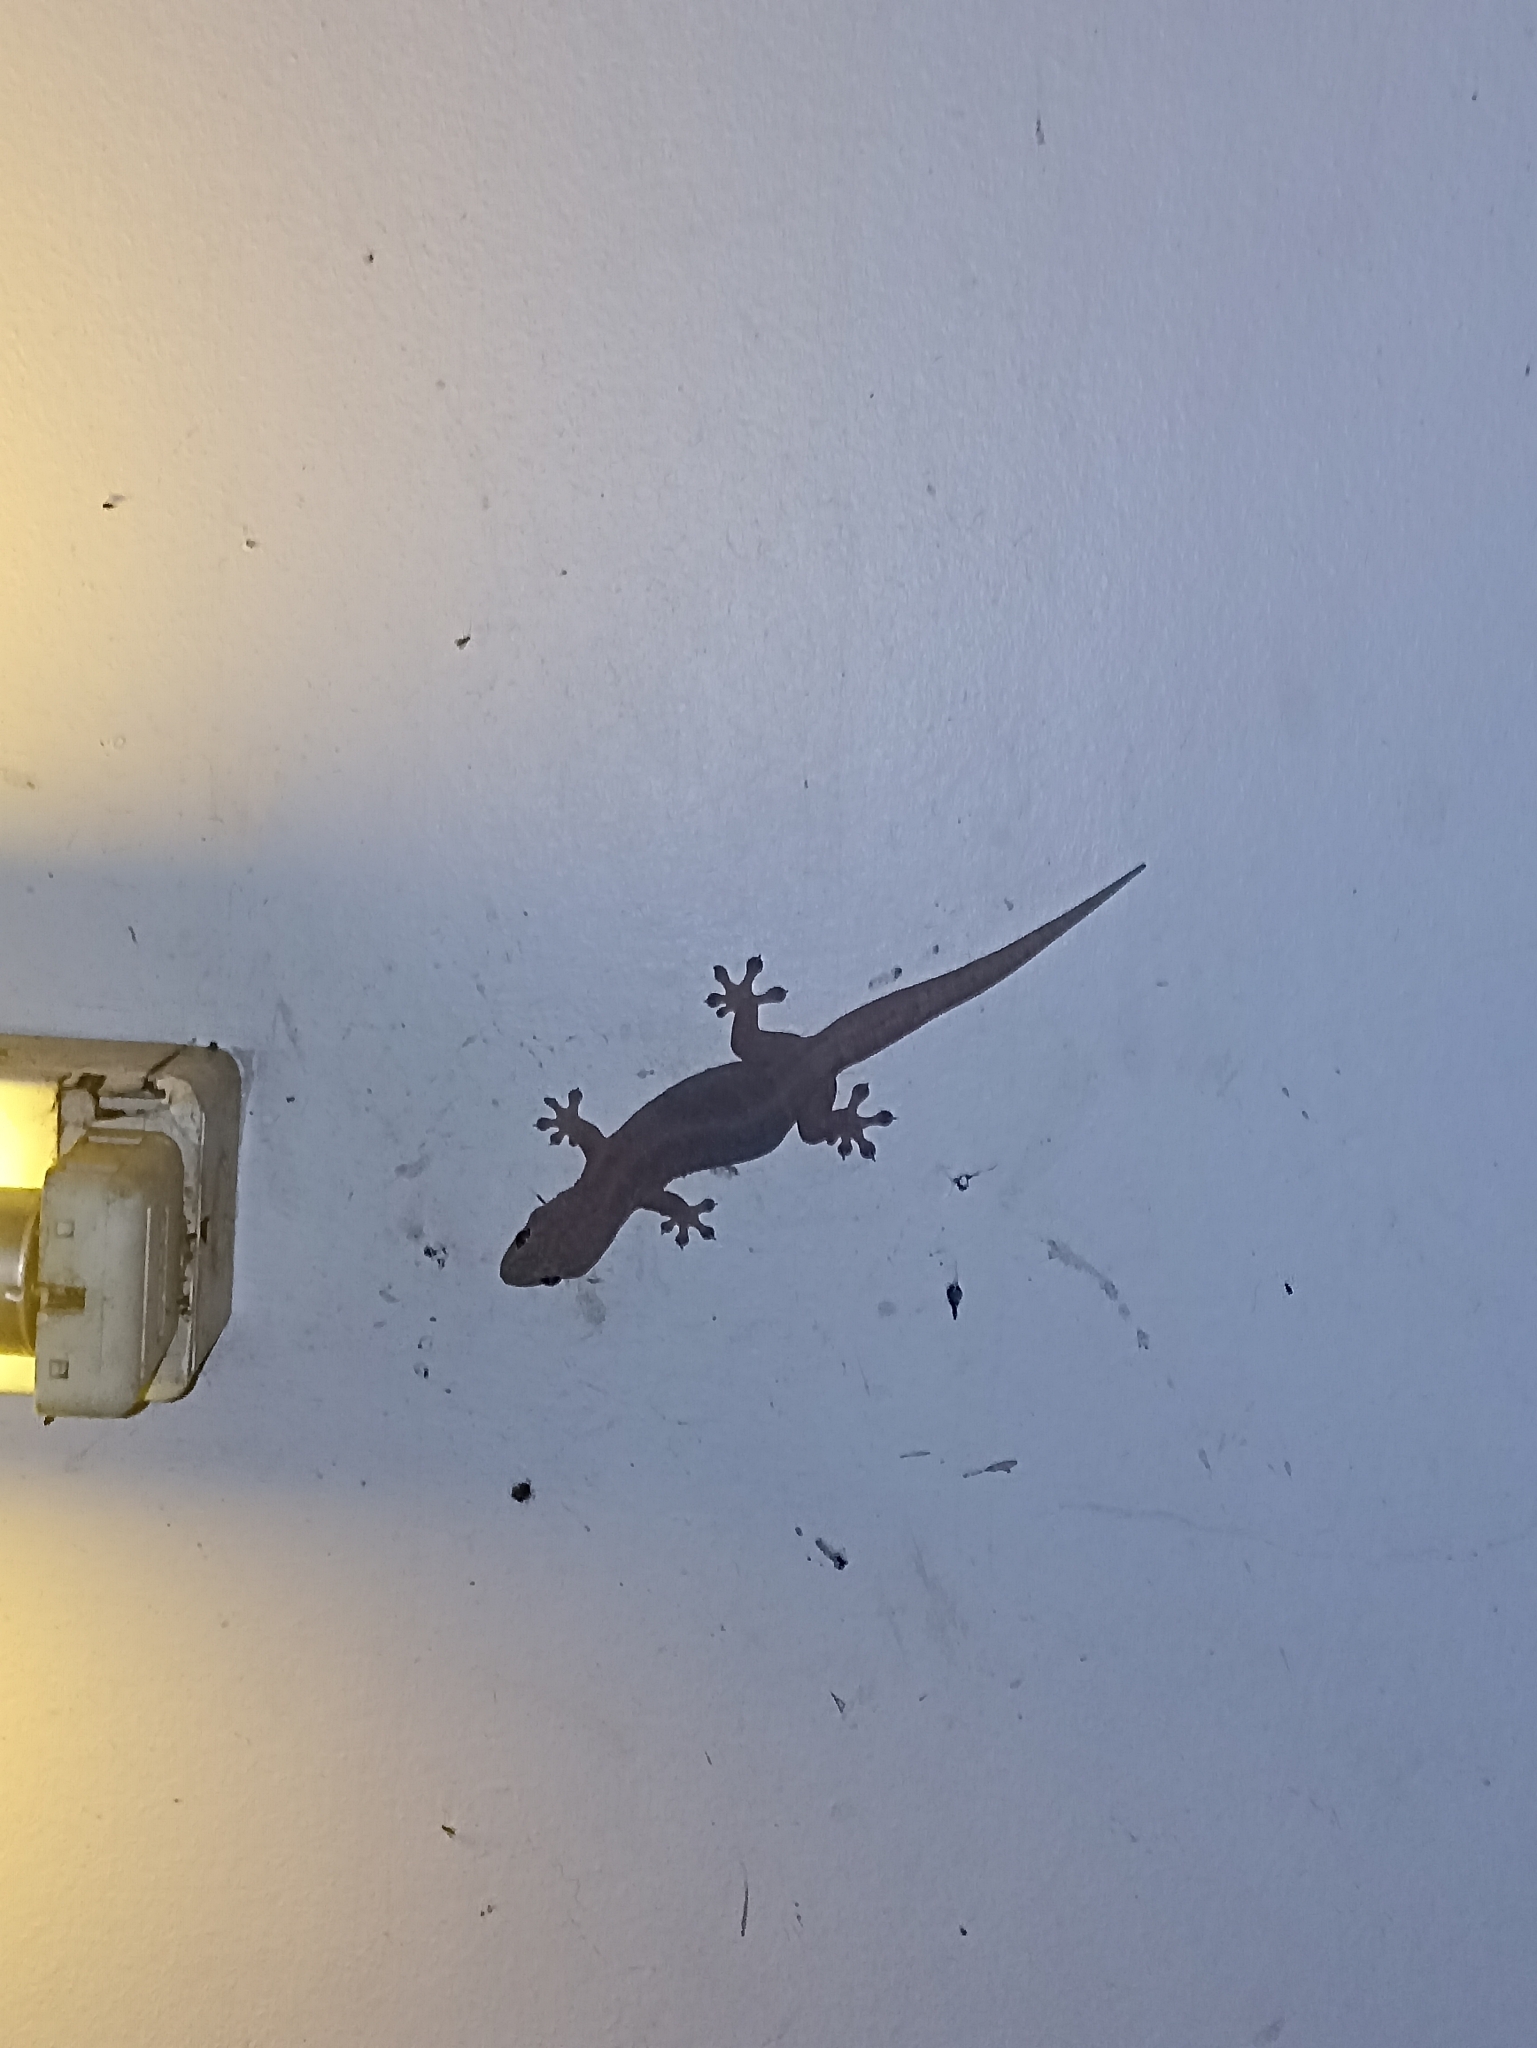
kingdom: Animalia
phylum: Chordata
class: Squamata
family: Gekkonidae
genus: Gehyra
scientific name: Gehyra australis
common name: House gecko
